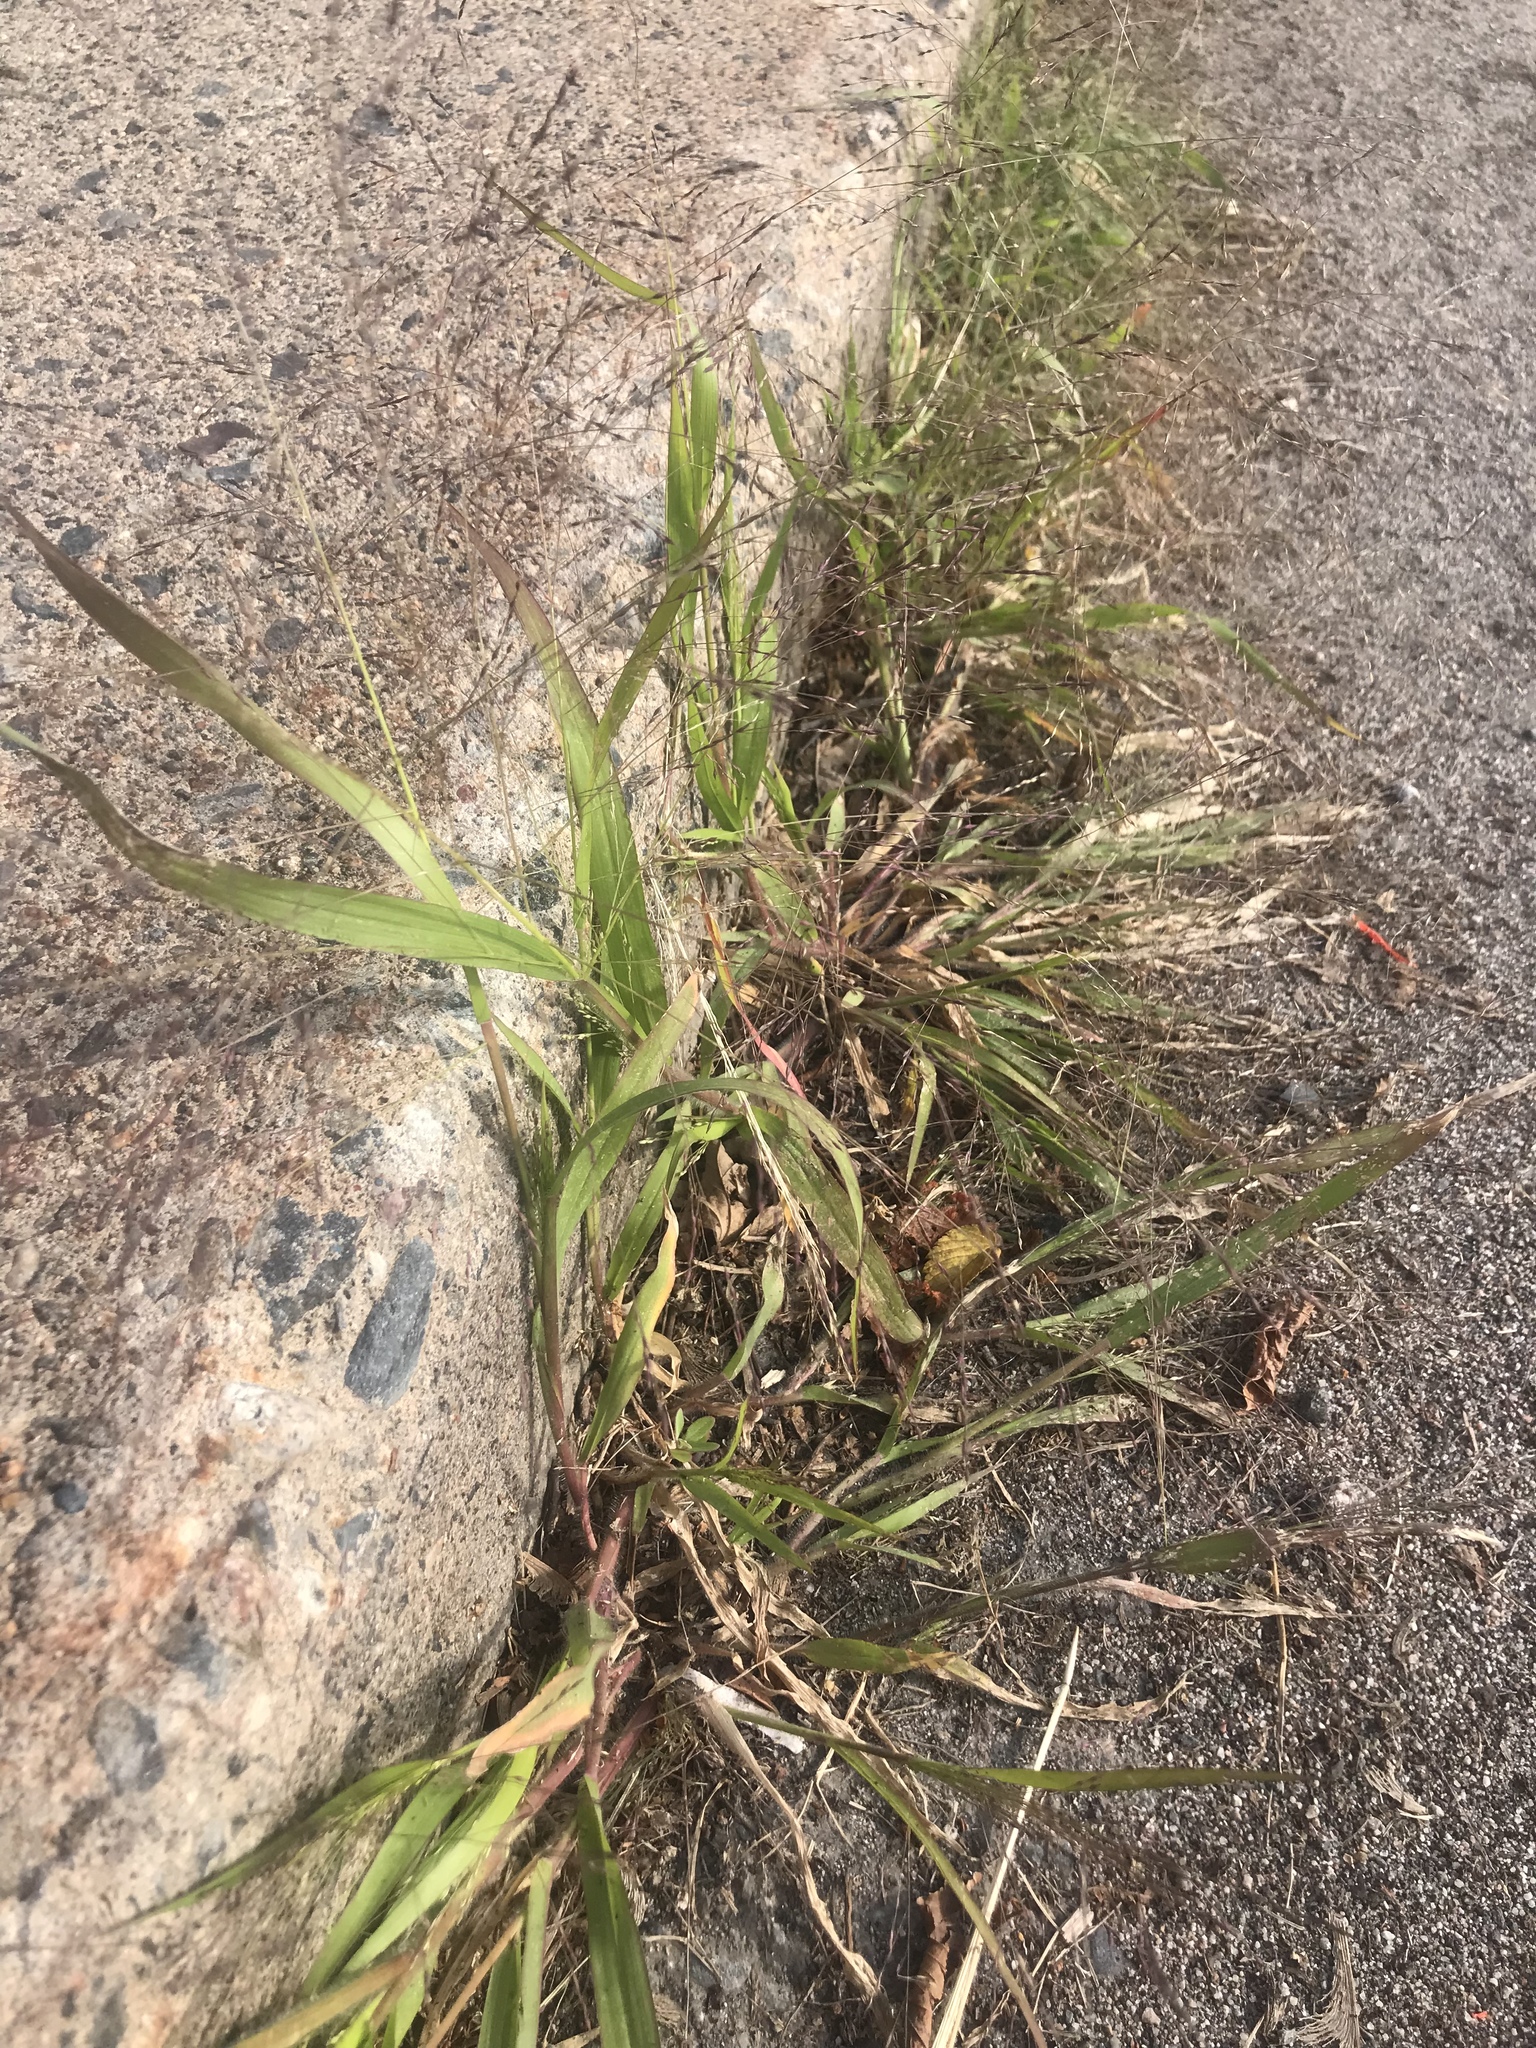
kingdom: Plantae
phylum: Tracheophyta
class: Liliopsida
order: Poales
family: Poaceae
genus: Panicum
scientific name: Panicum capillare
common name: Witch-grass
